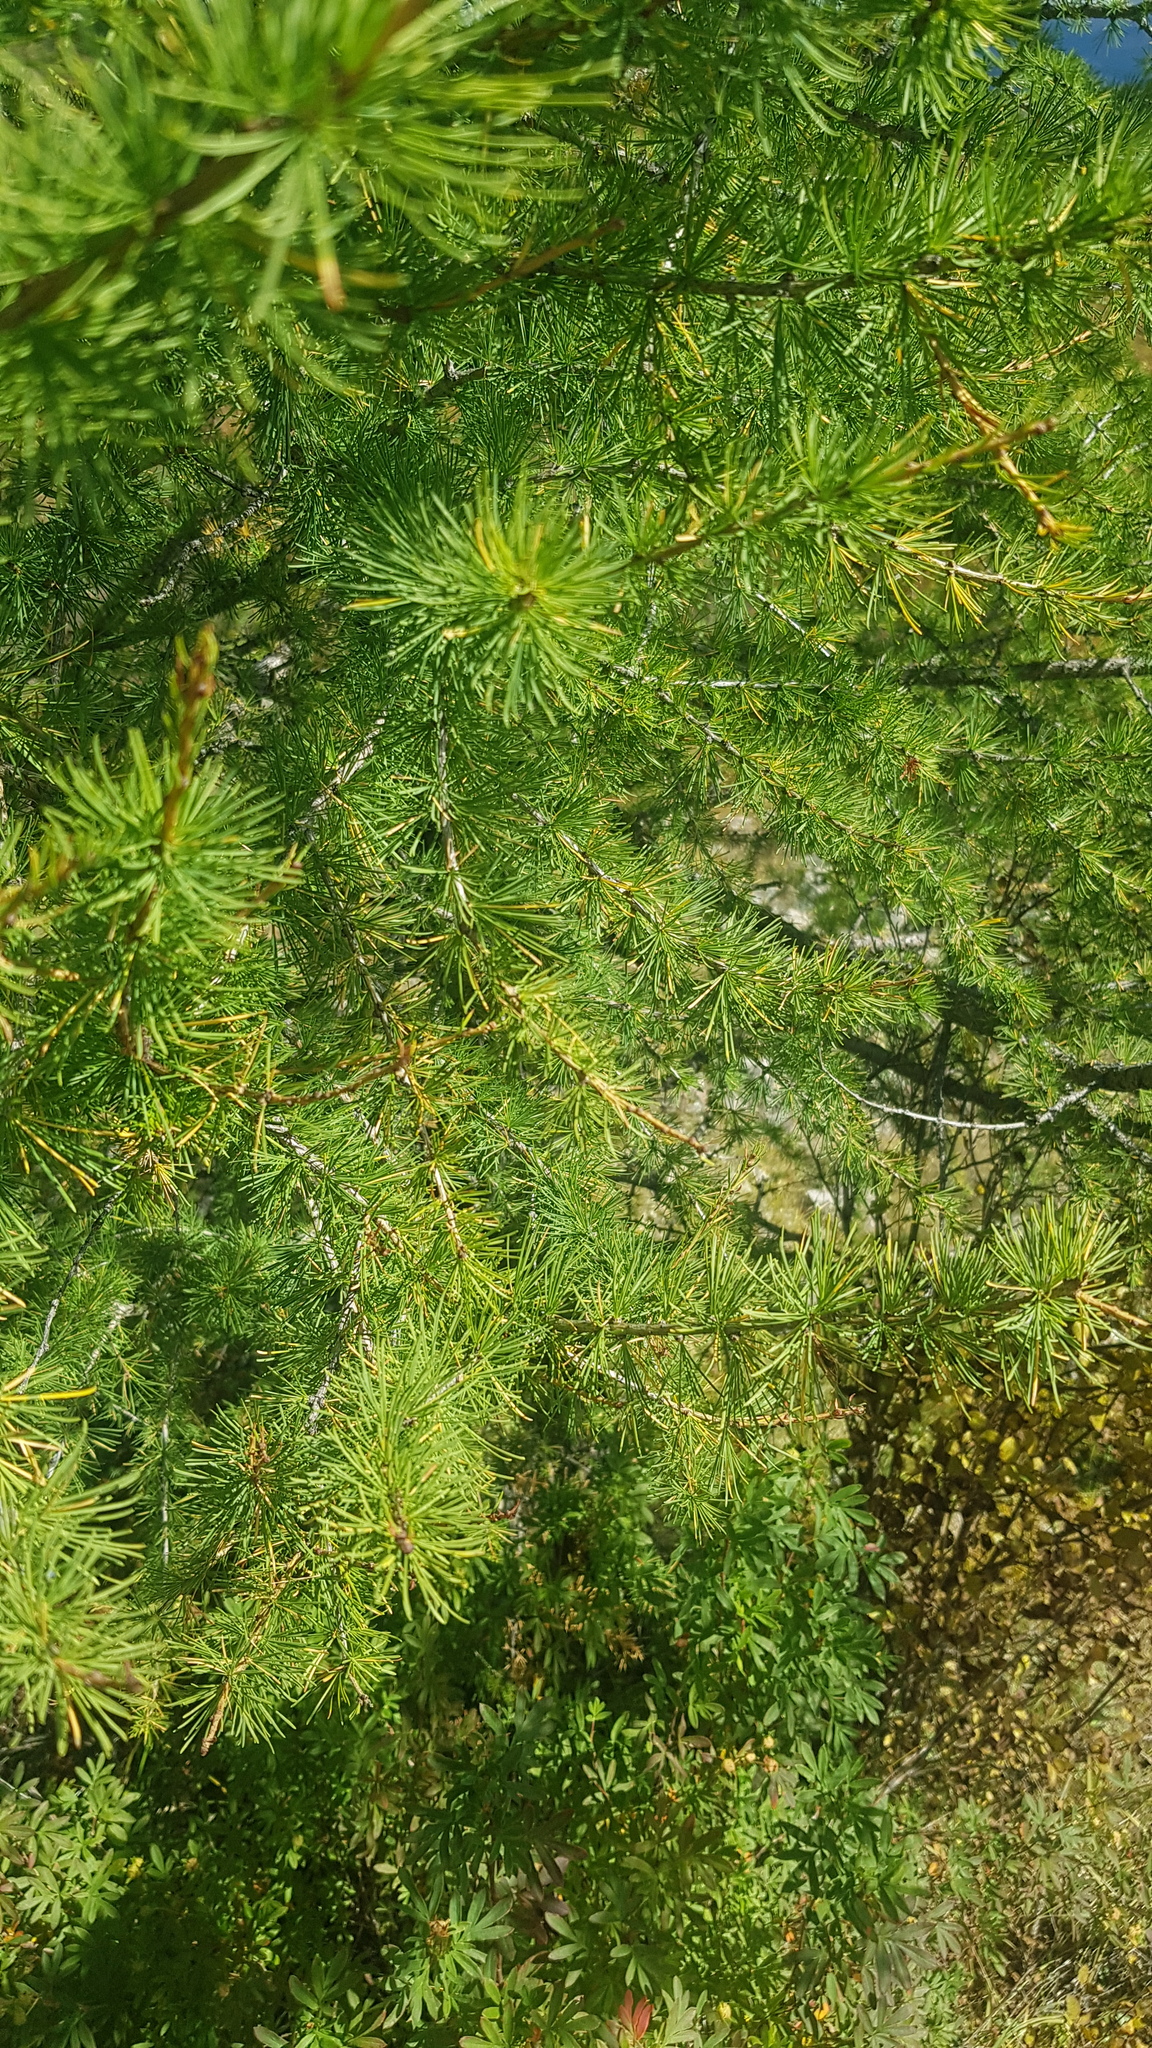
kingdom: Plantae
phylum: Tracheophyta
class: Pinopsida
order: Pinales
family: Pinaceae
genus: Larix
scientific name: Larix sibirica
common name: Siberian larch
